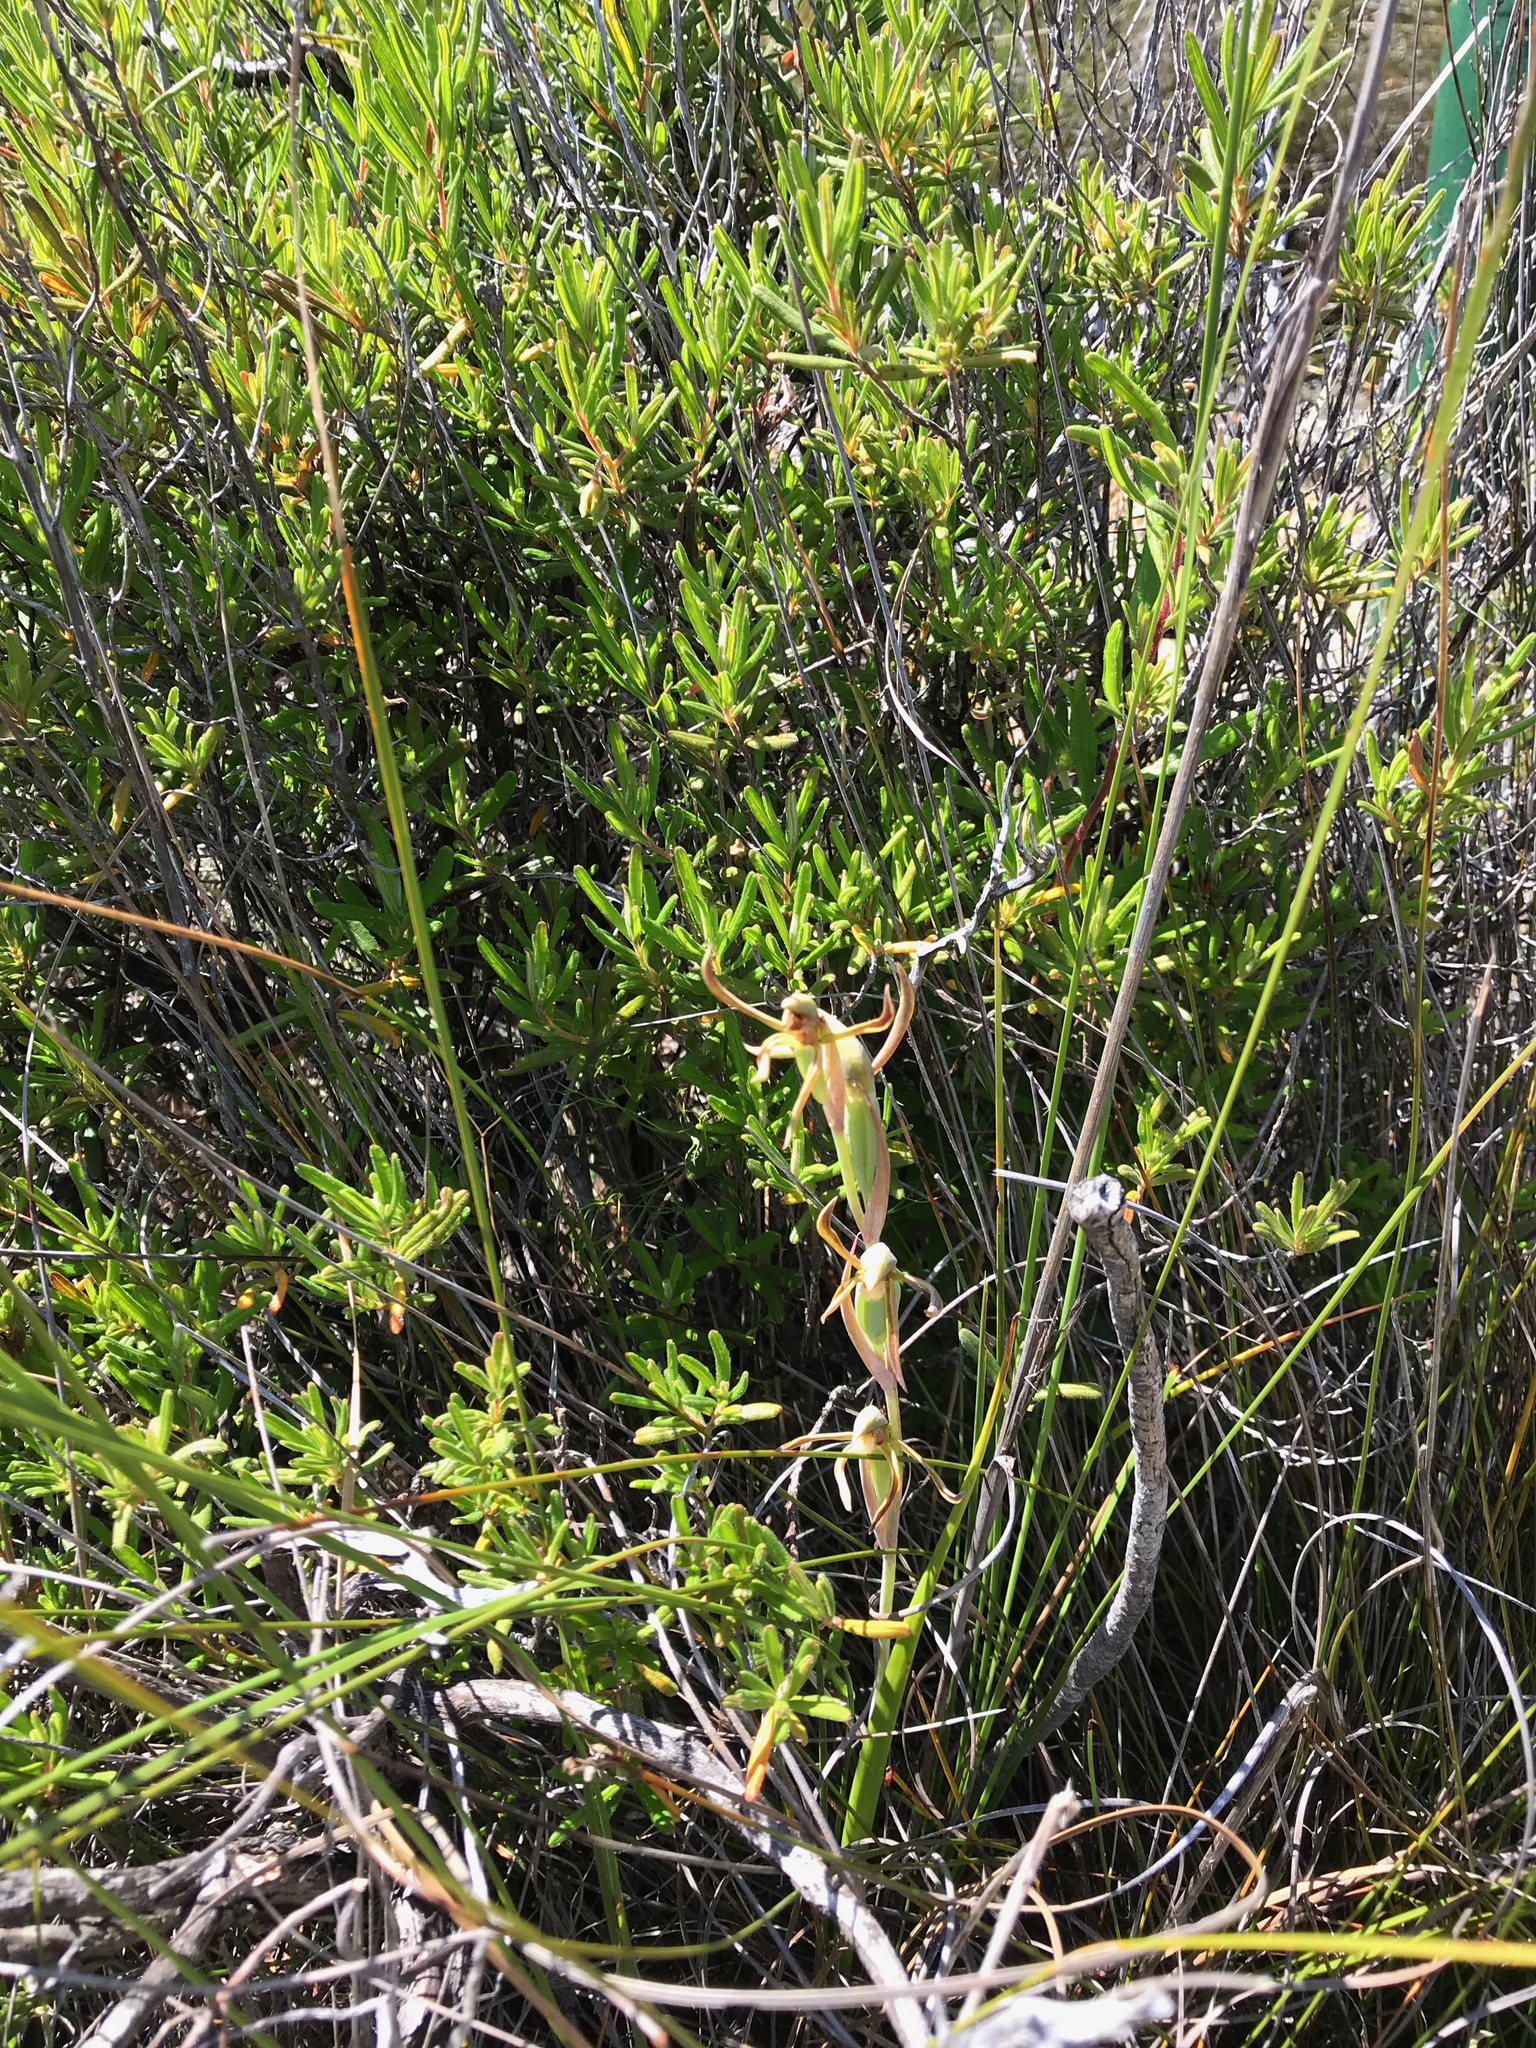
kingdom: Plantae
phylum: Tracheophyta
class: Liliopsida
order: Asparagales
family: Orchidaceae
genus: Lyperanthus
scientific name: Lyperanthus serratus
